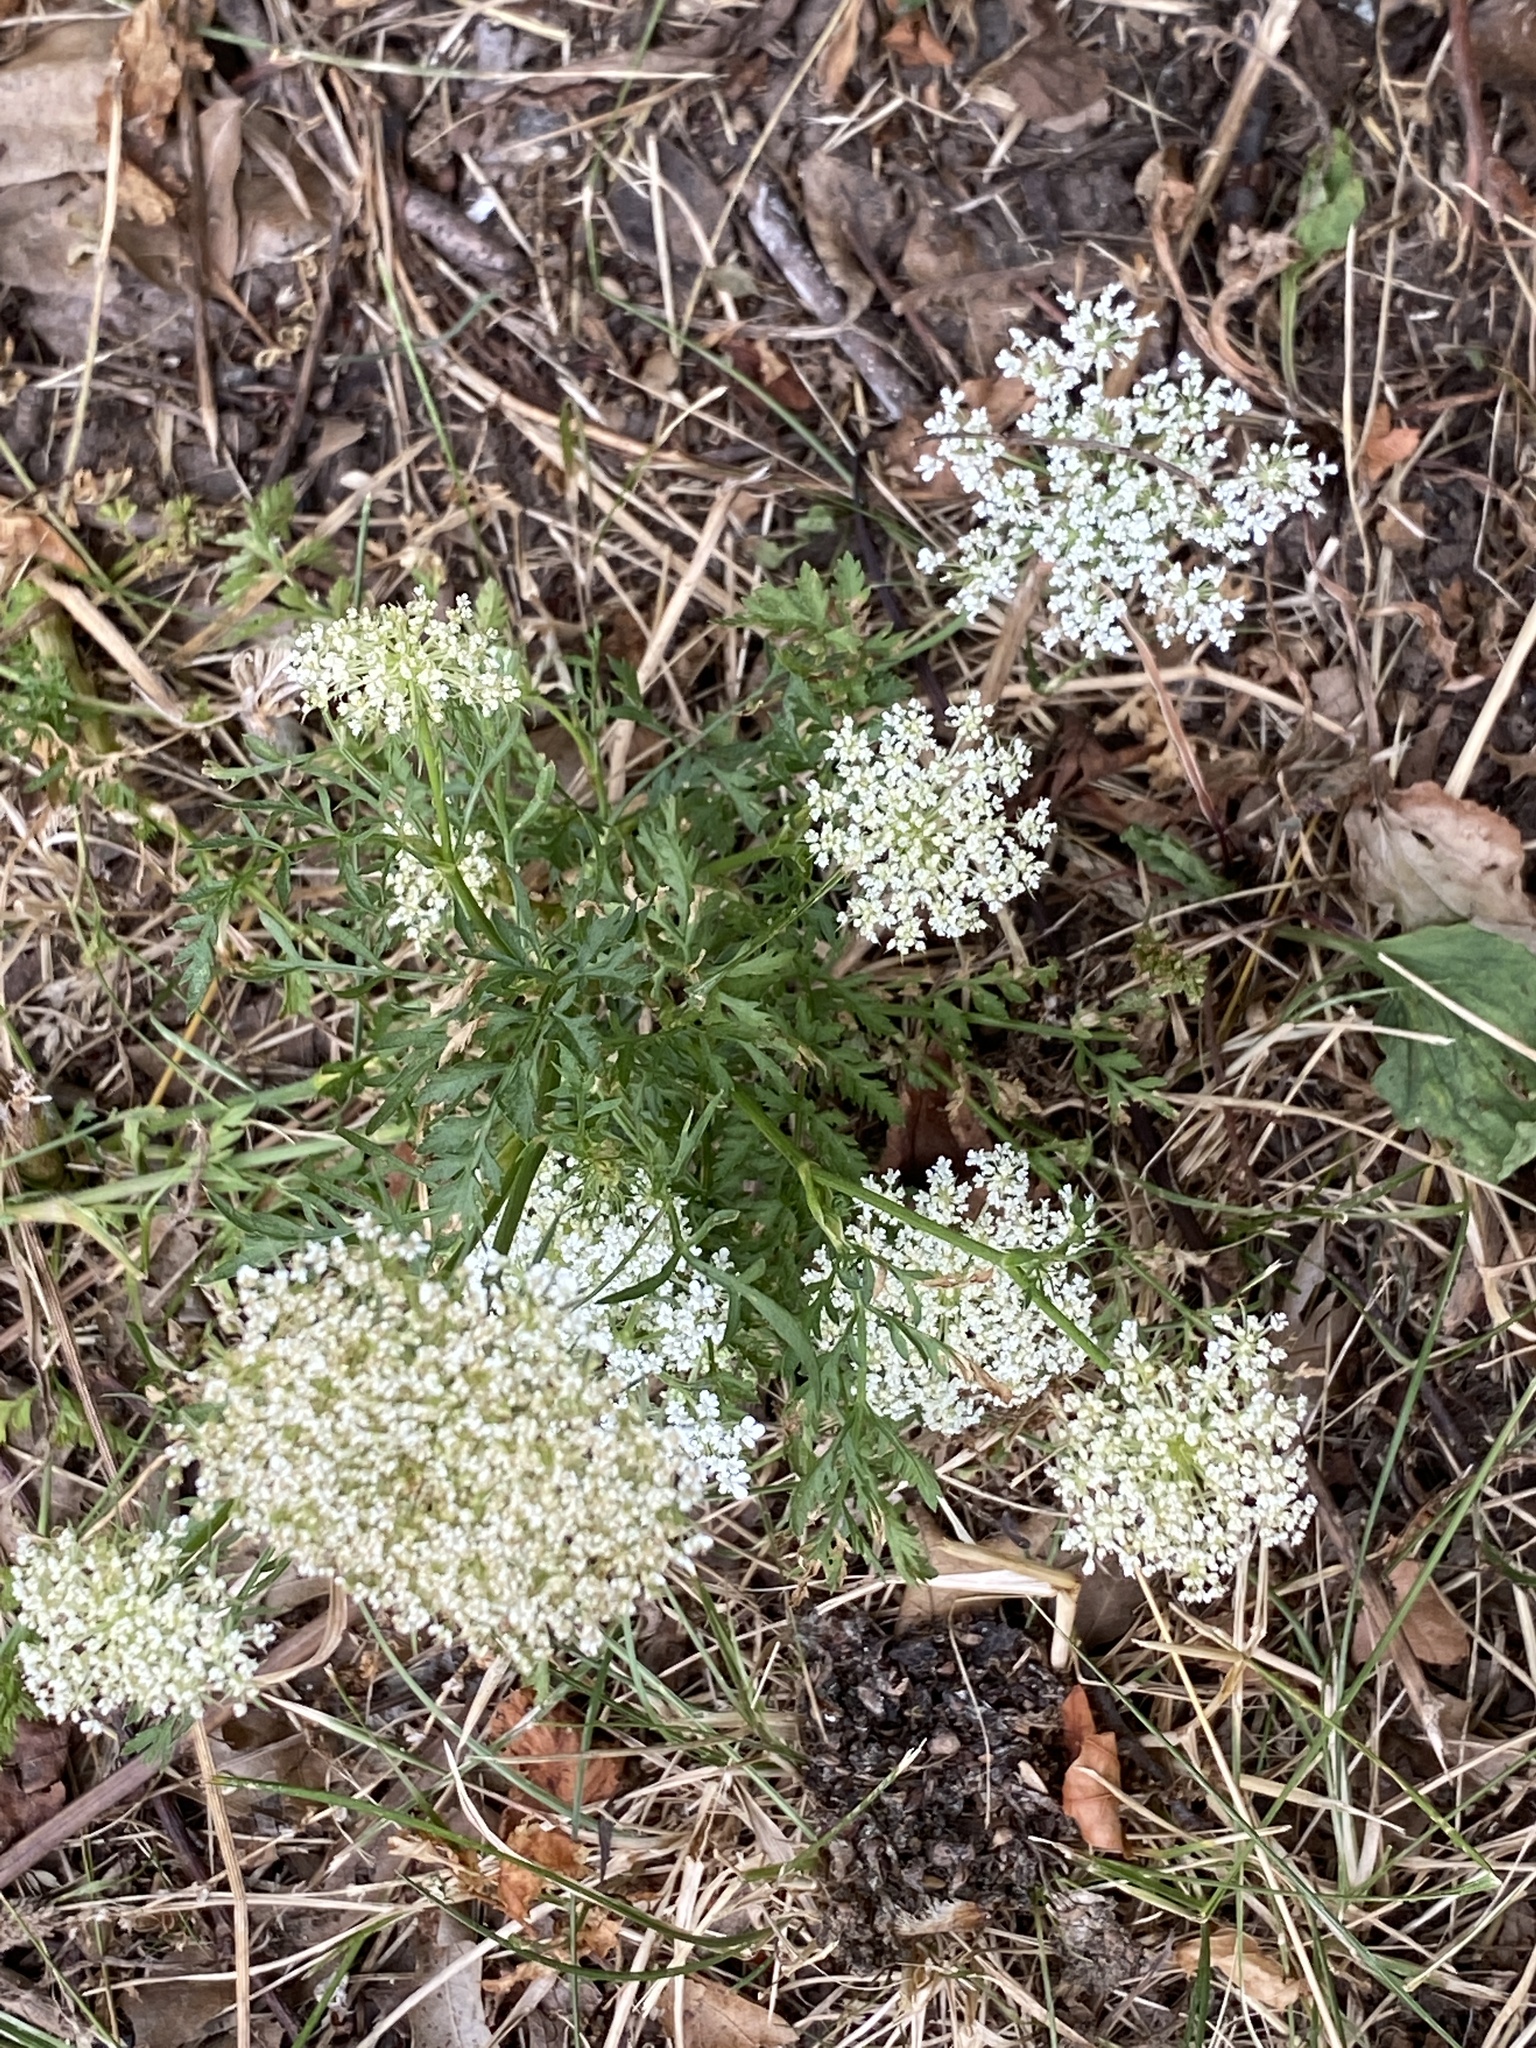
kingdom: Plantae
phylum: Tracheophyta
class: Magnoliopsida
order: Apiales
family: Apiaceae
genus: Daucus
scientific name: Daucus carota
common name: Wild carrot
